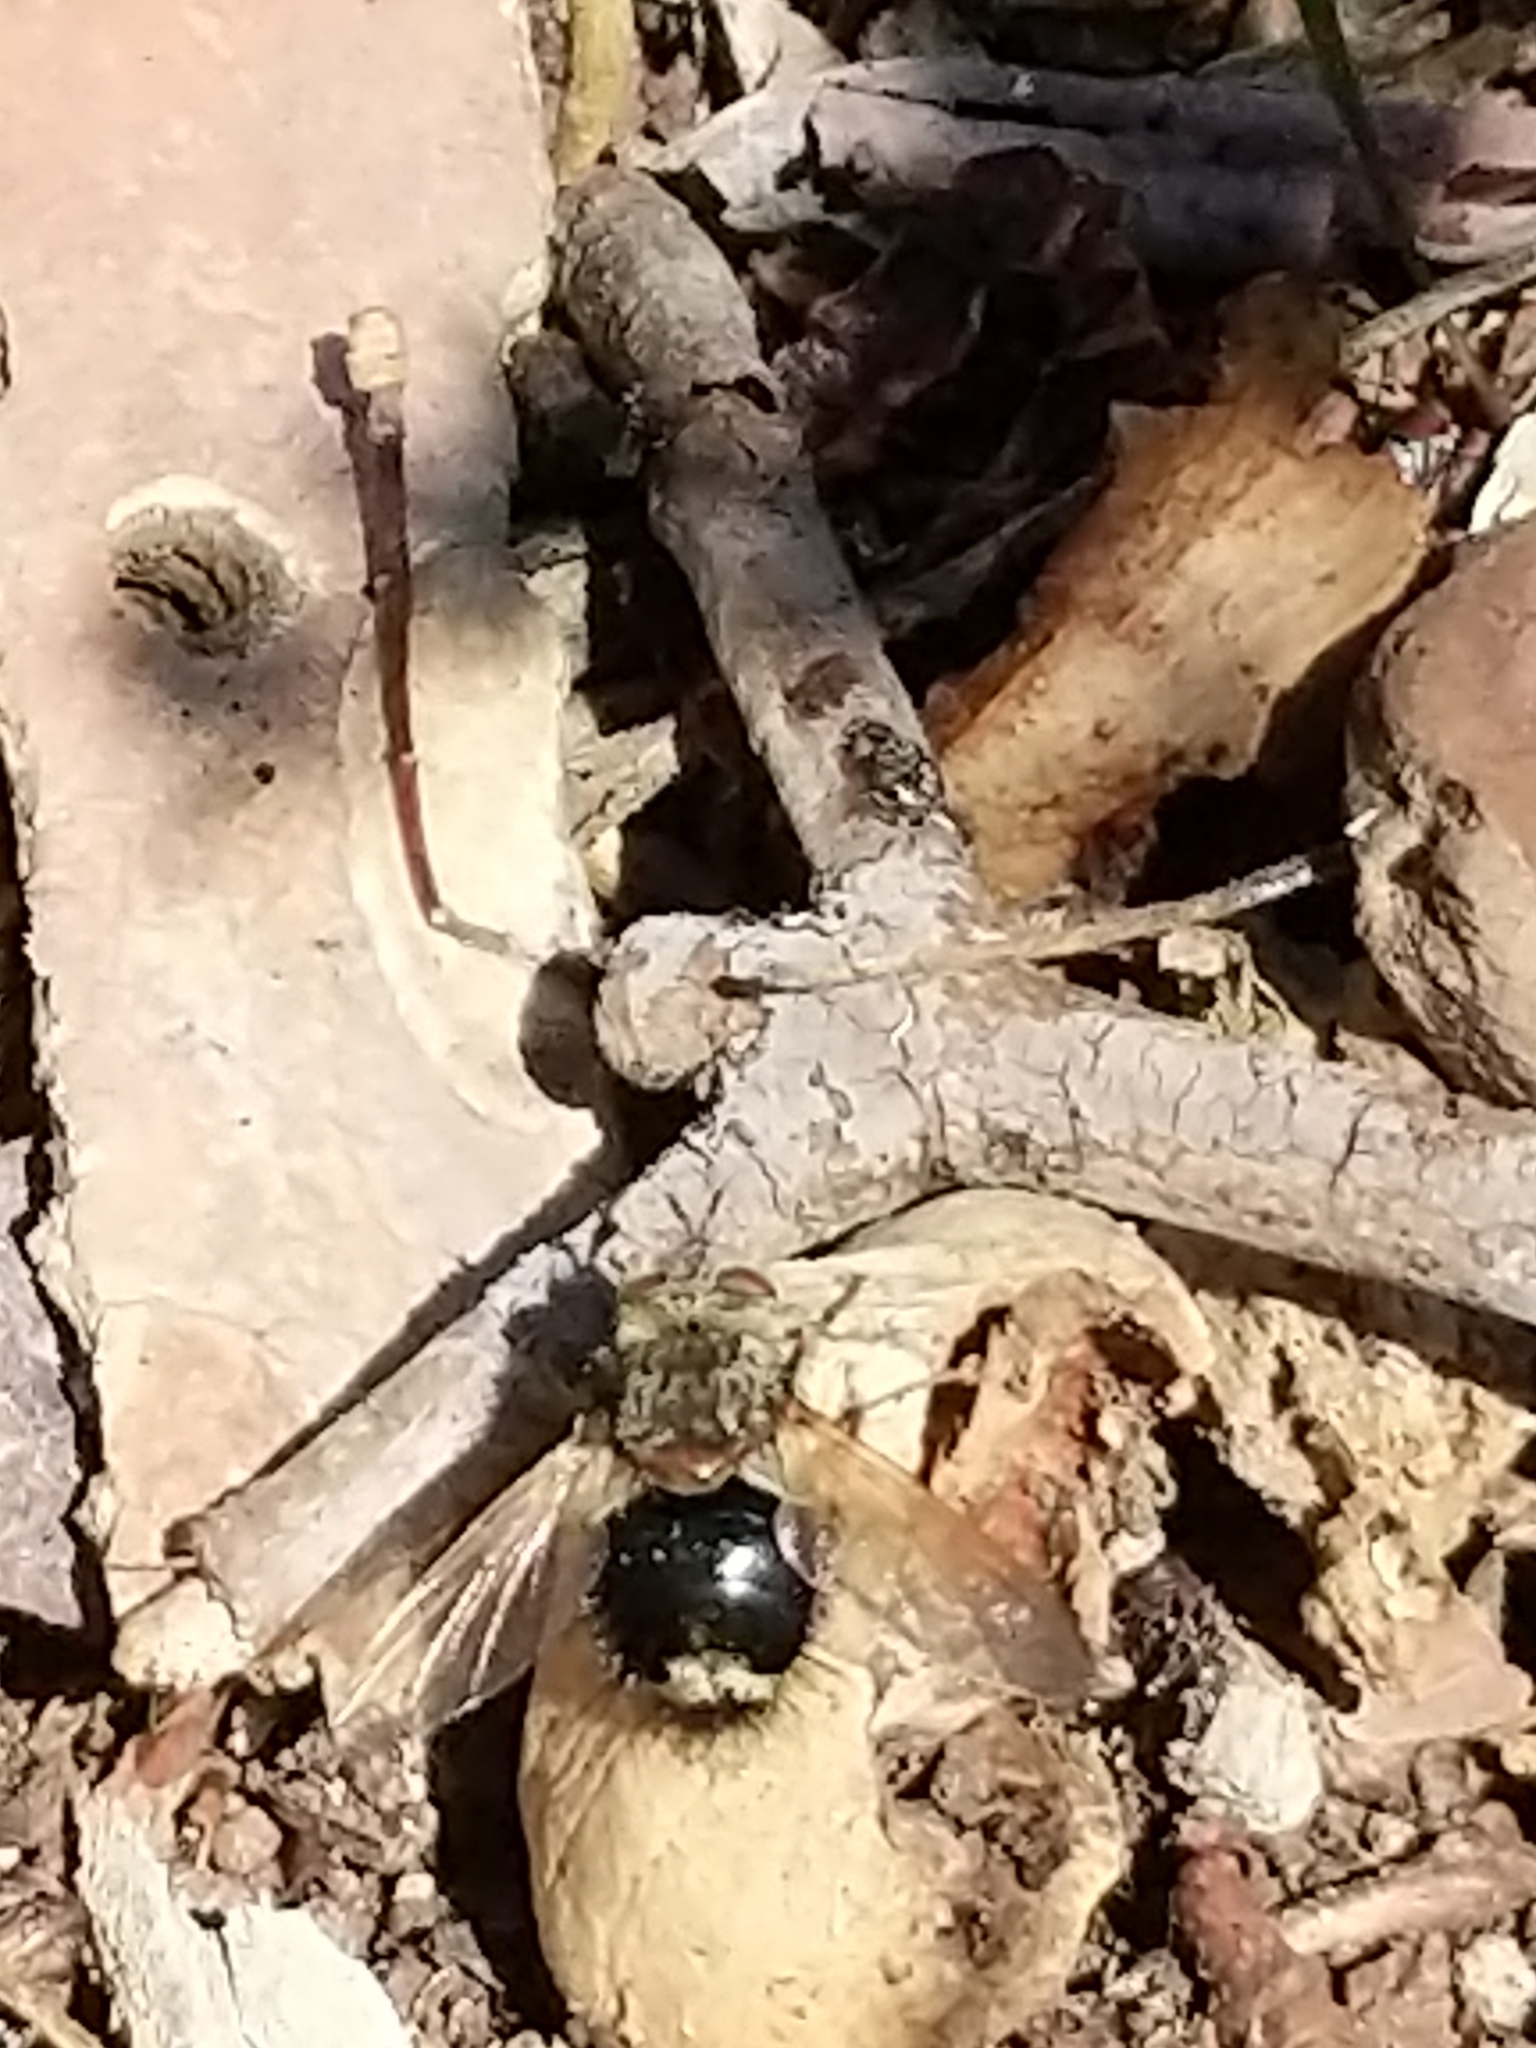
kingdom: Animalia
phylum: Arthropoda
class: Insecta
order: Diptera
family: Tachinidae
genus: Epalpus
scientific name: Epalpus signifer
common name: Early tachinid fly
